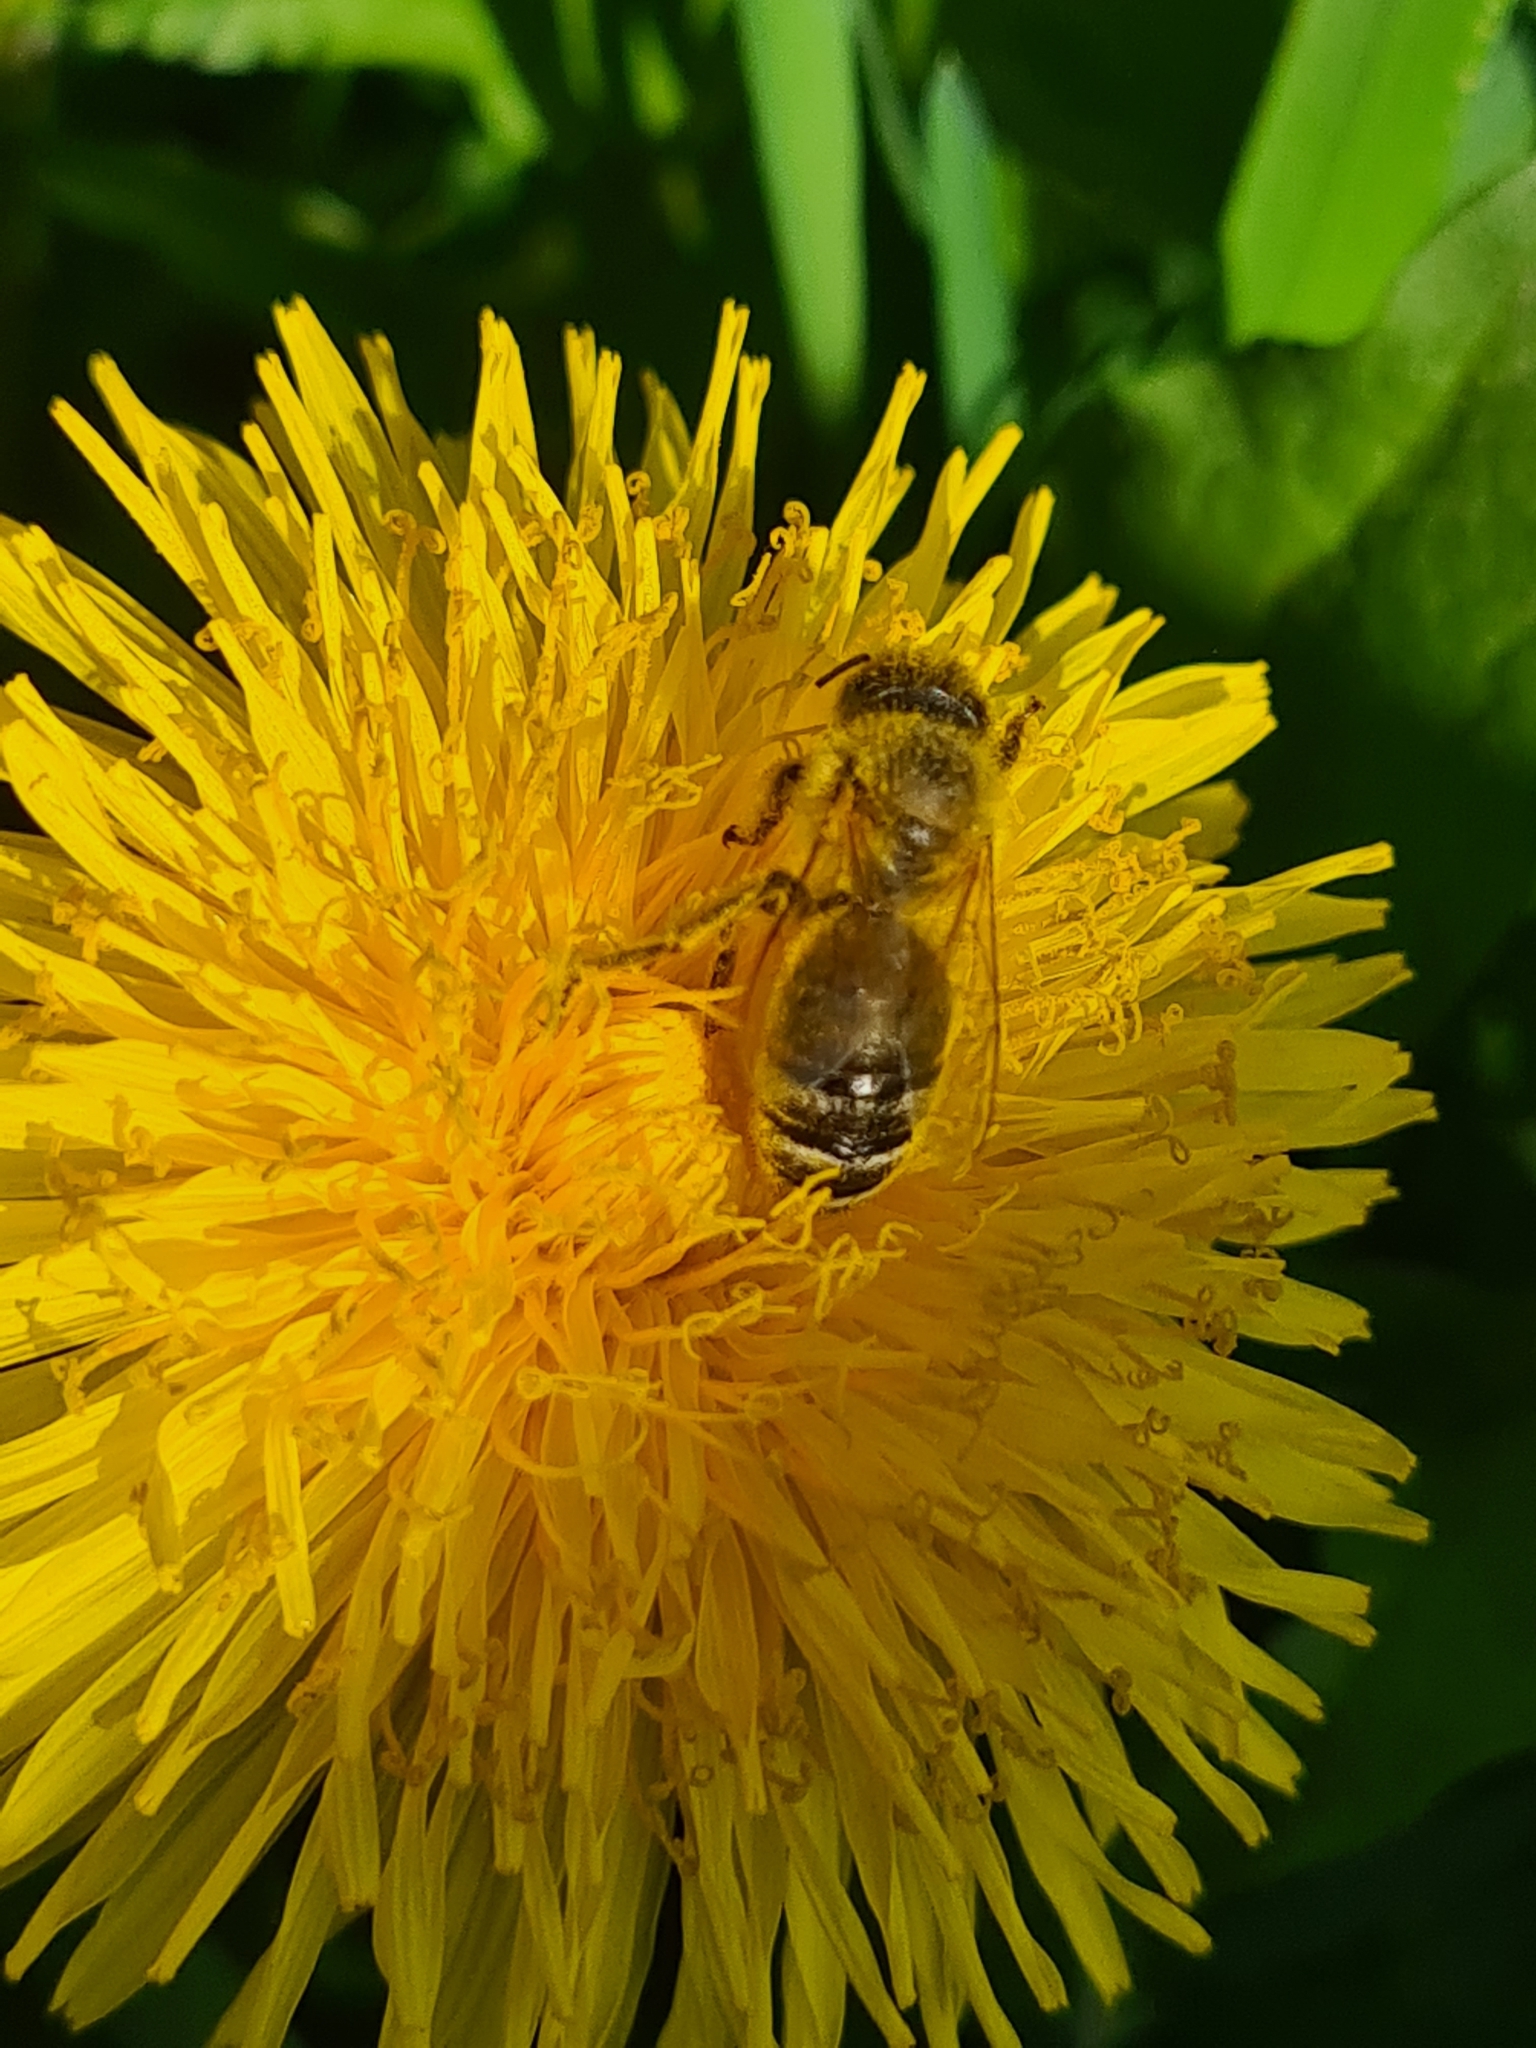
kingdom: Animalia
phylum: Arthropoda
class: Insecta
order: Hymenoptera
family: Apidae
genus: Apis
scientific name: Apis mellifera
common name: Honey bee
